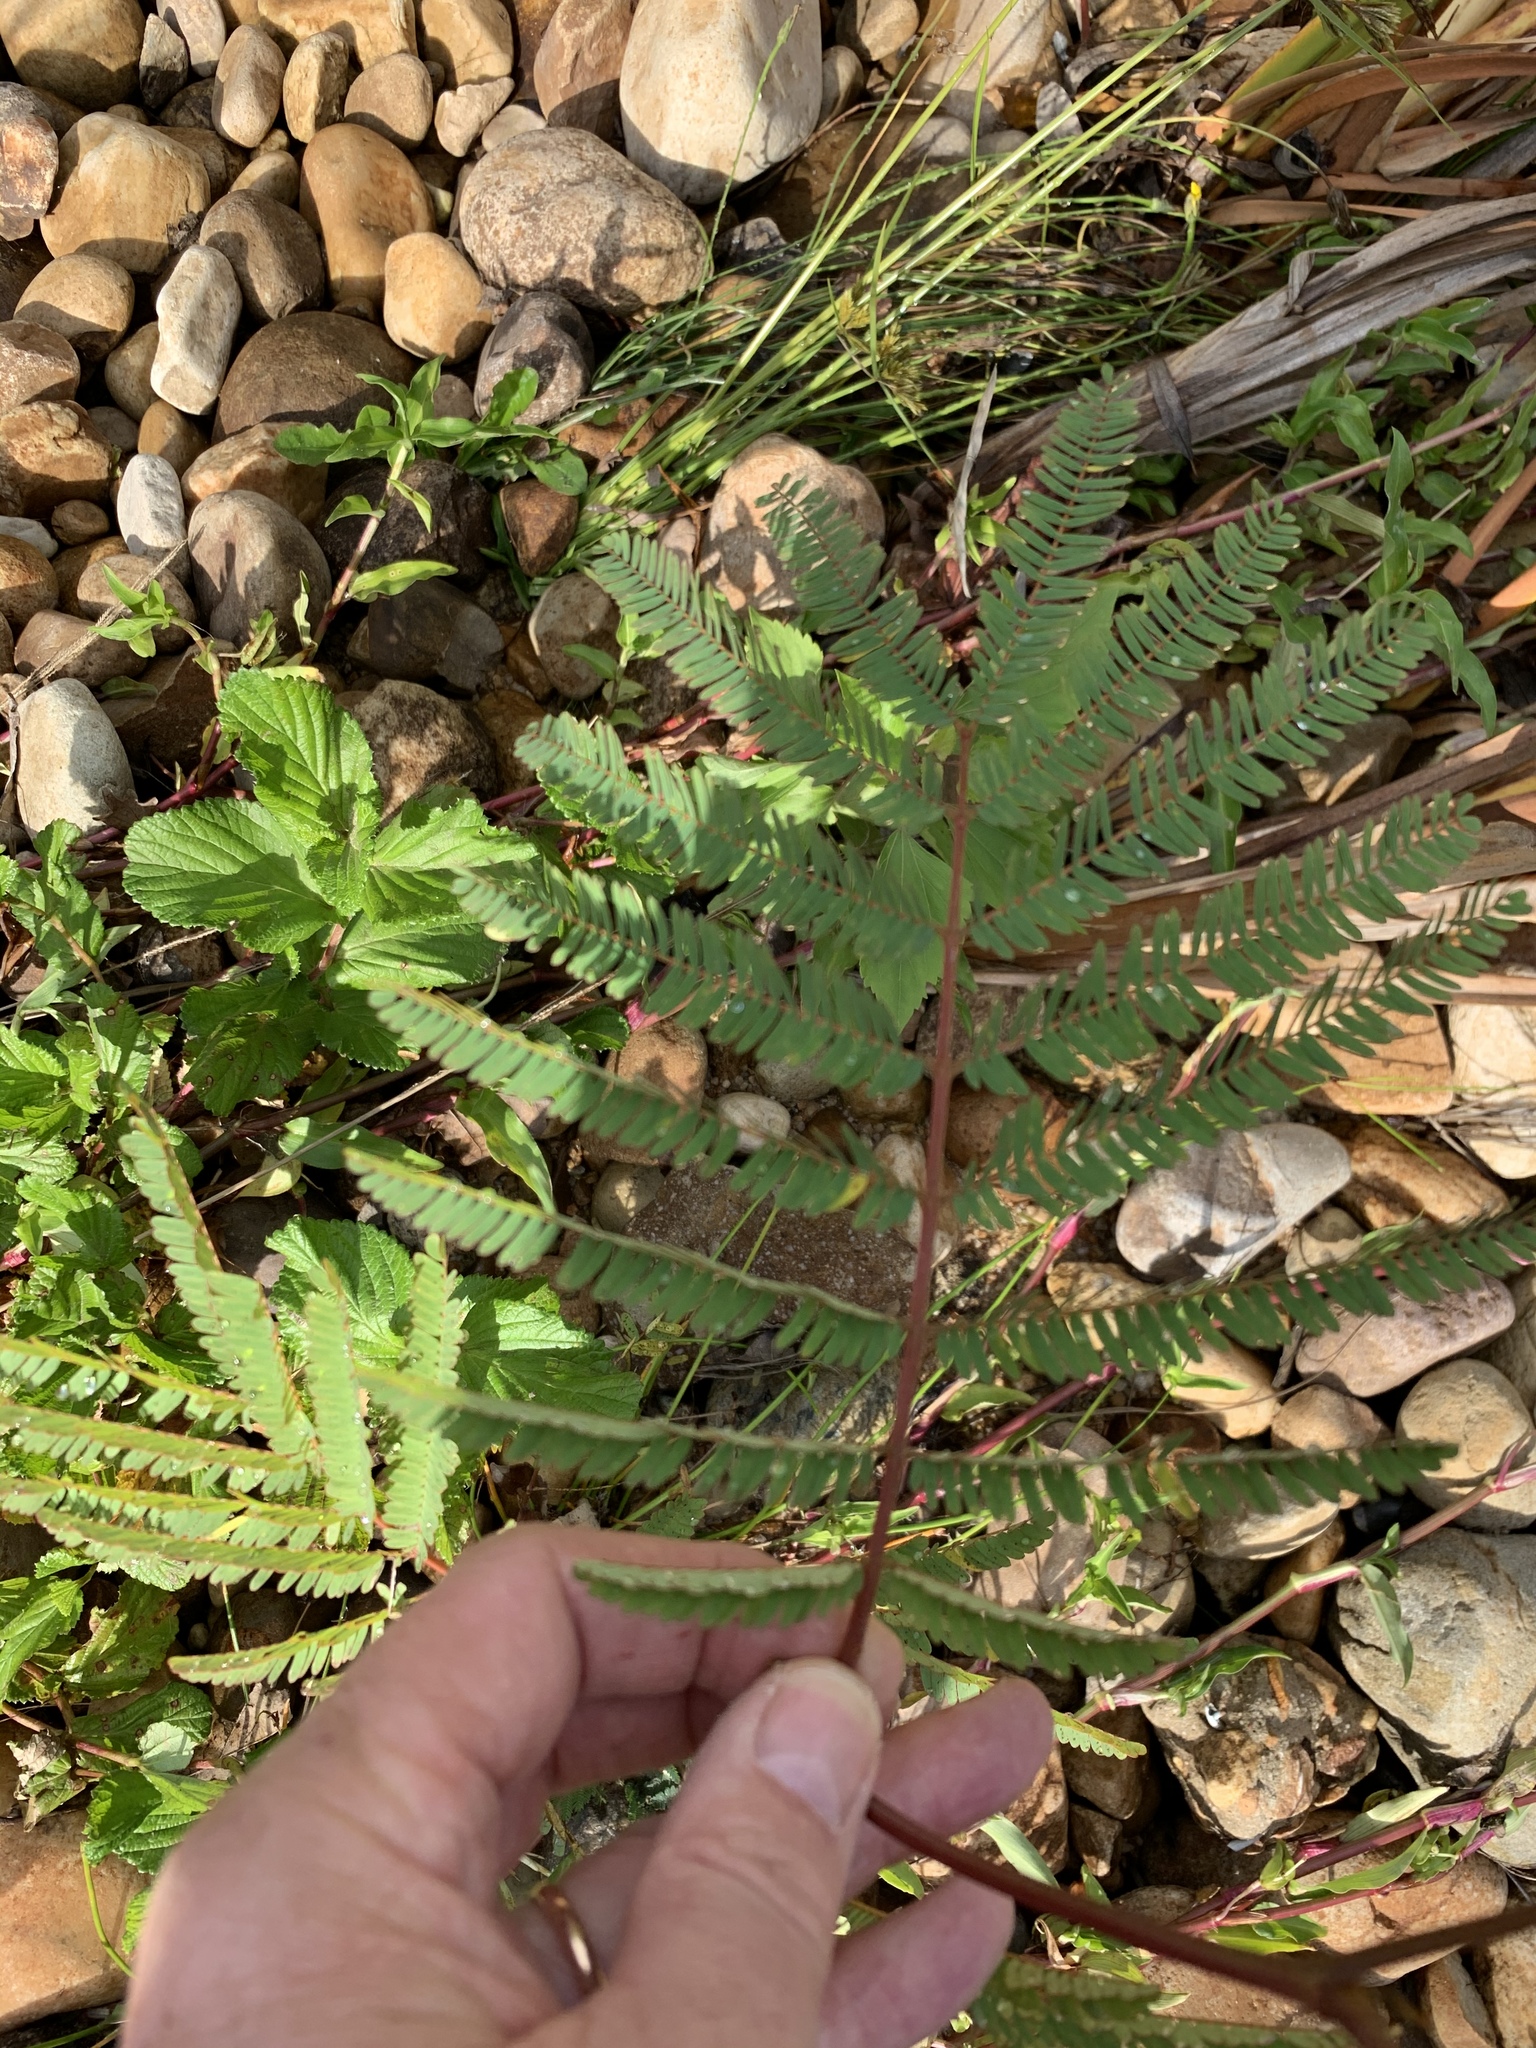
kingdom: Plantae
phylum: Tracheophyta
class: Magnoliopsida
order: Fabales
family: Fabaceae
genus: Paraserianthes
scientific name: Paraserianthes lophantha
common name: Plume albizia
